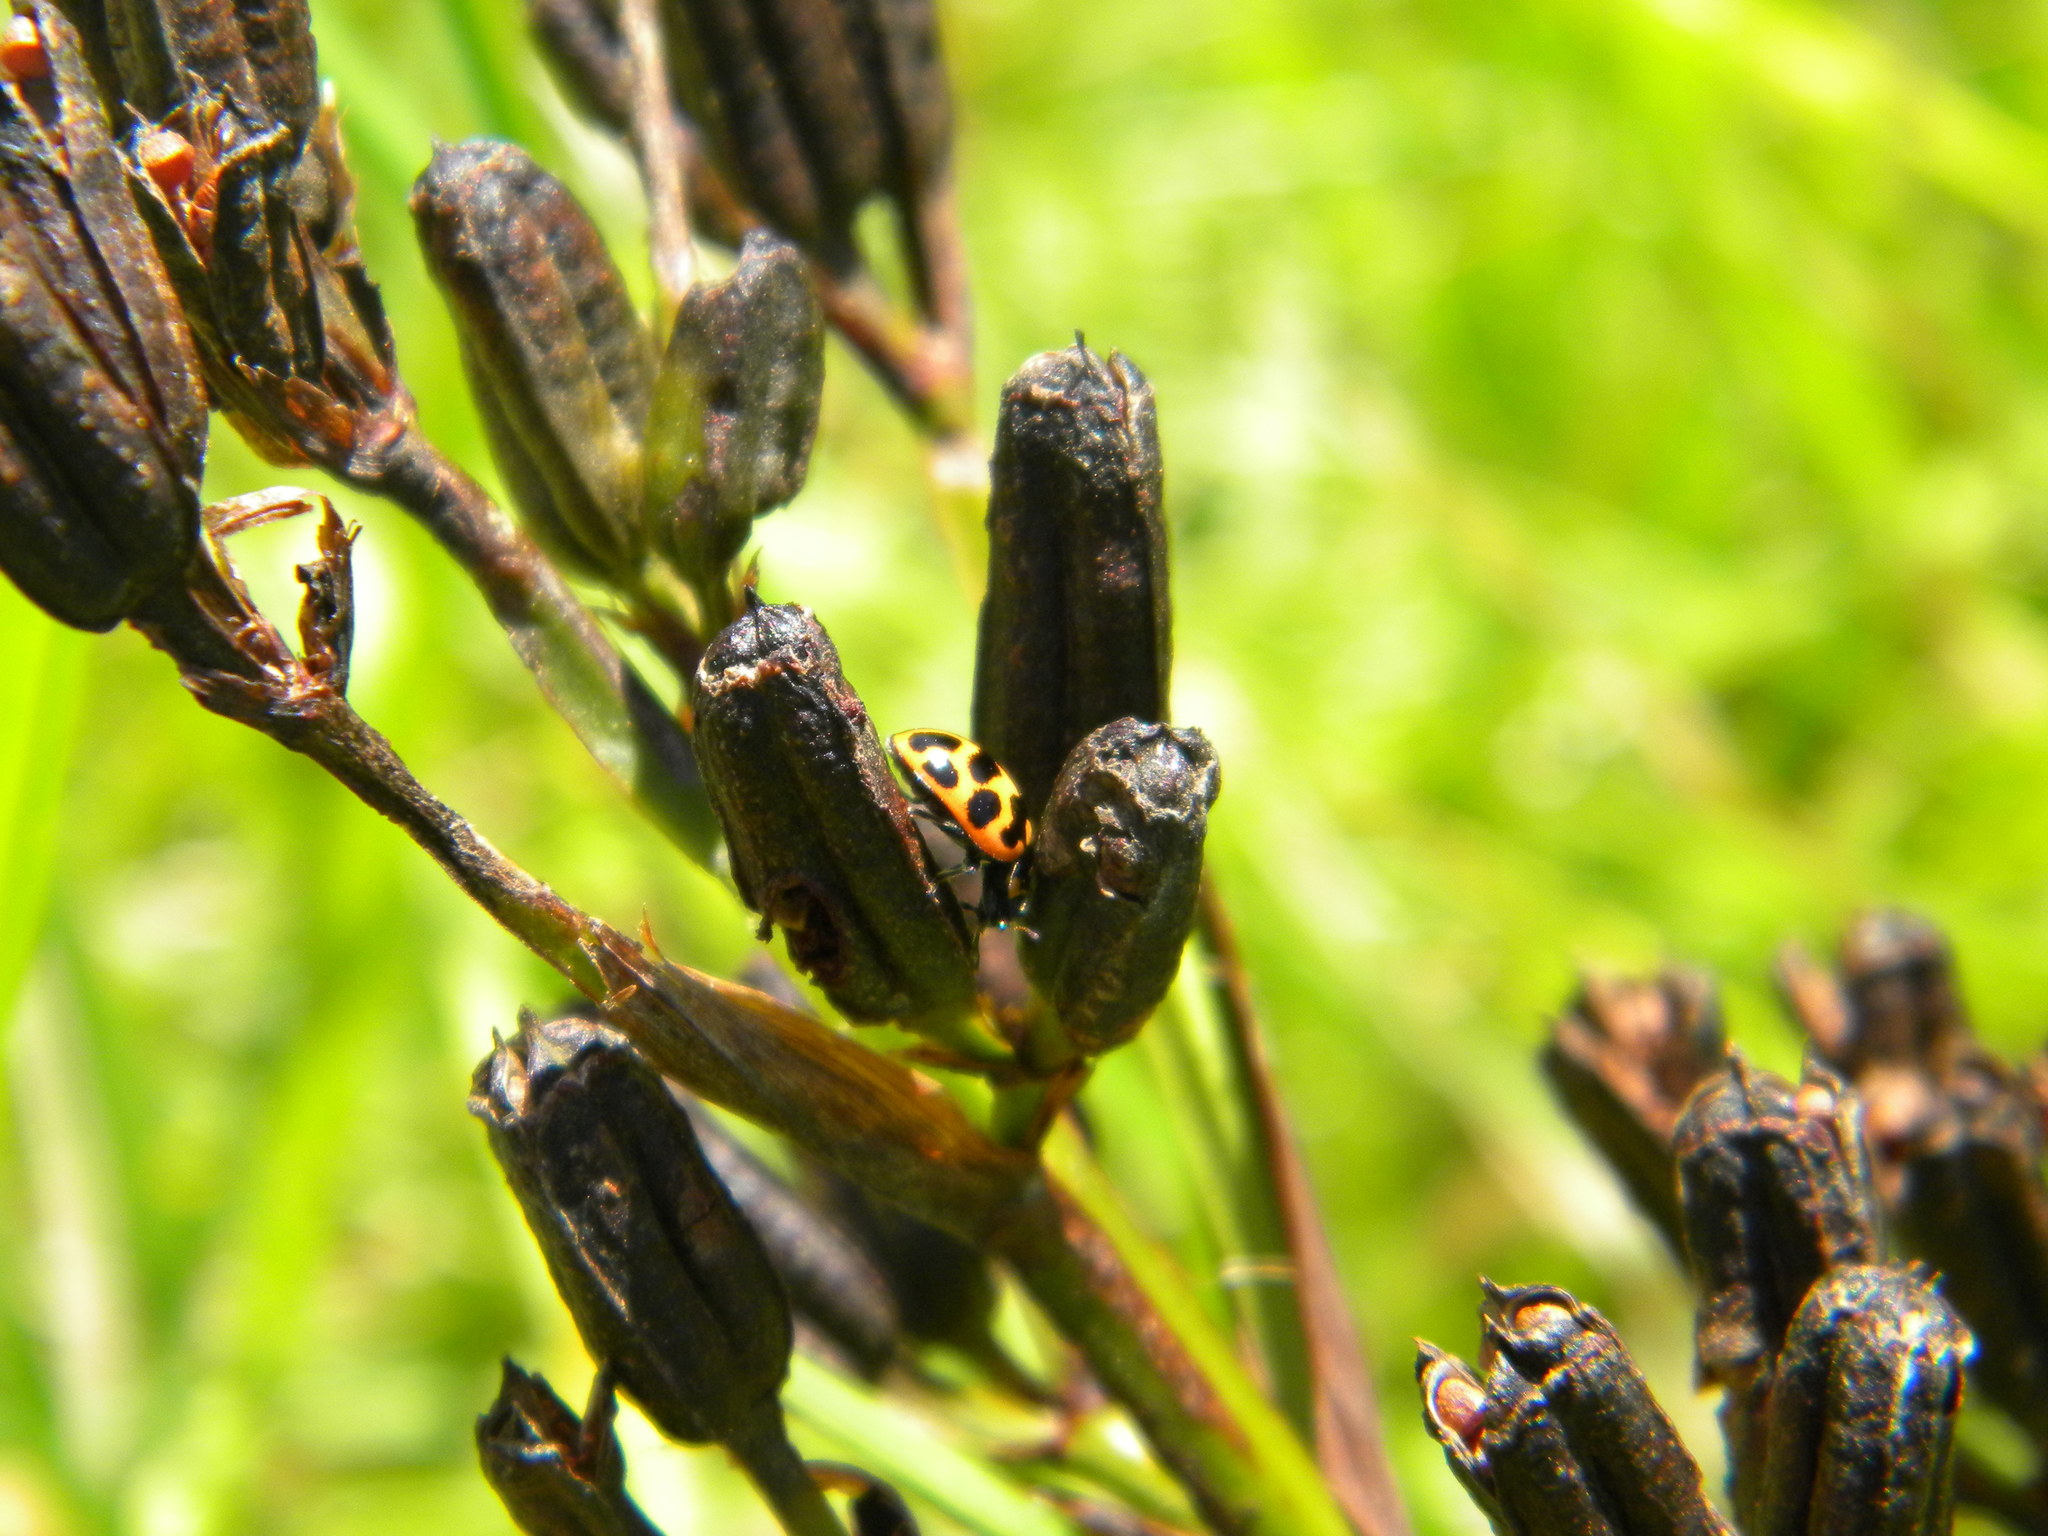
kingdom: Animalia
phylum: Arthropoda
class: Insecta
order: Coleoptera
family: Coccinellidae
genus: Lioadalia
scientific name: Lioadalia flavomaculata
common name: Ladybird beetle
